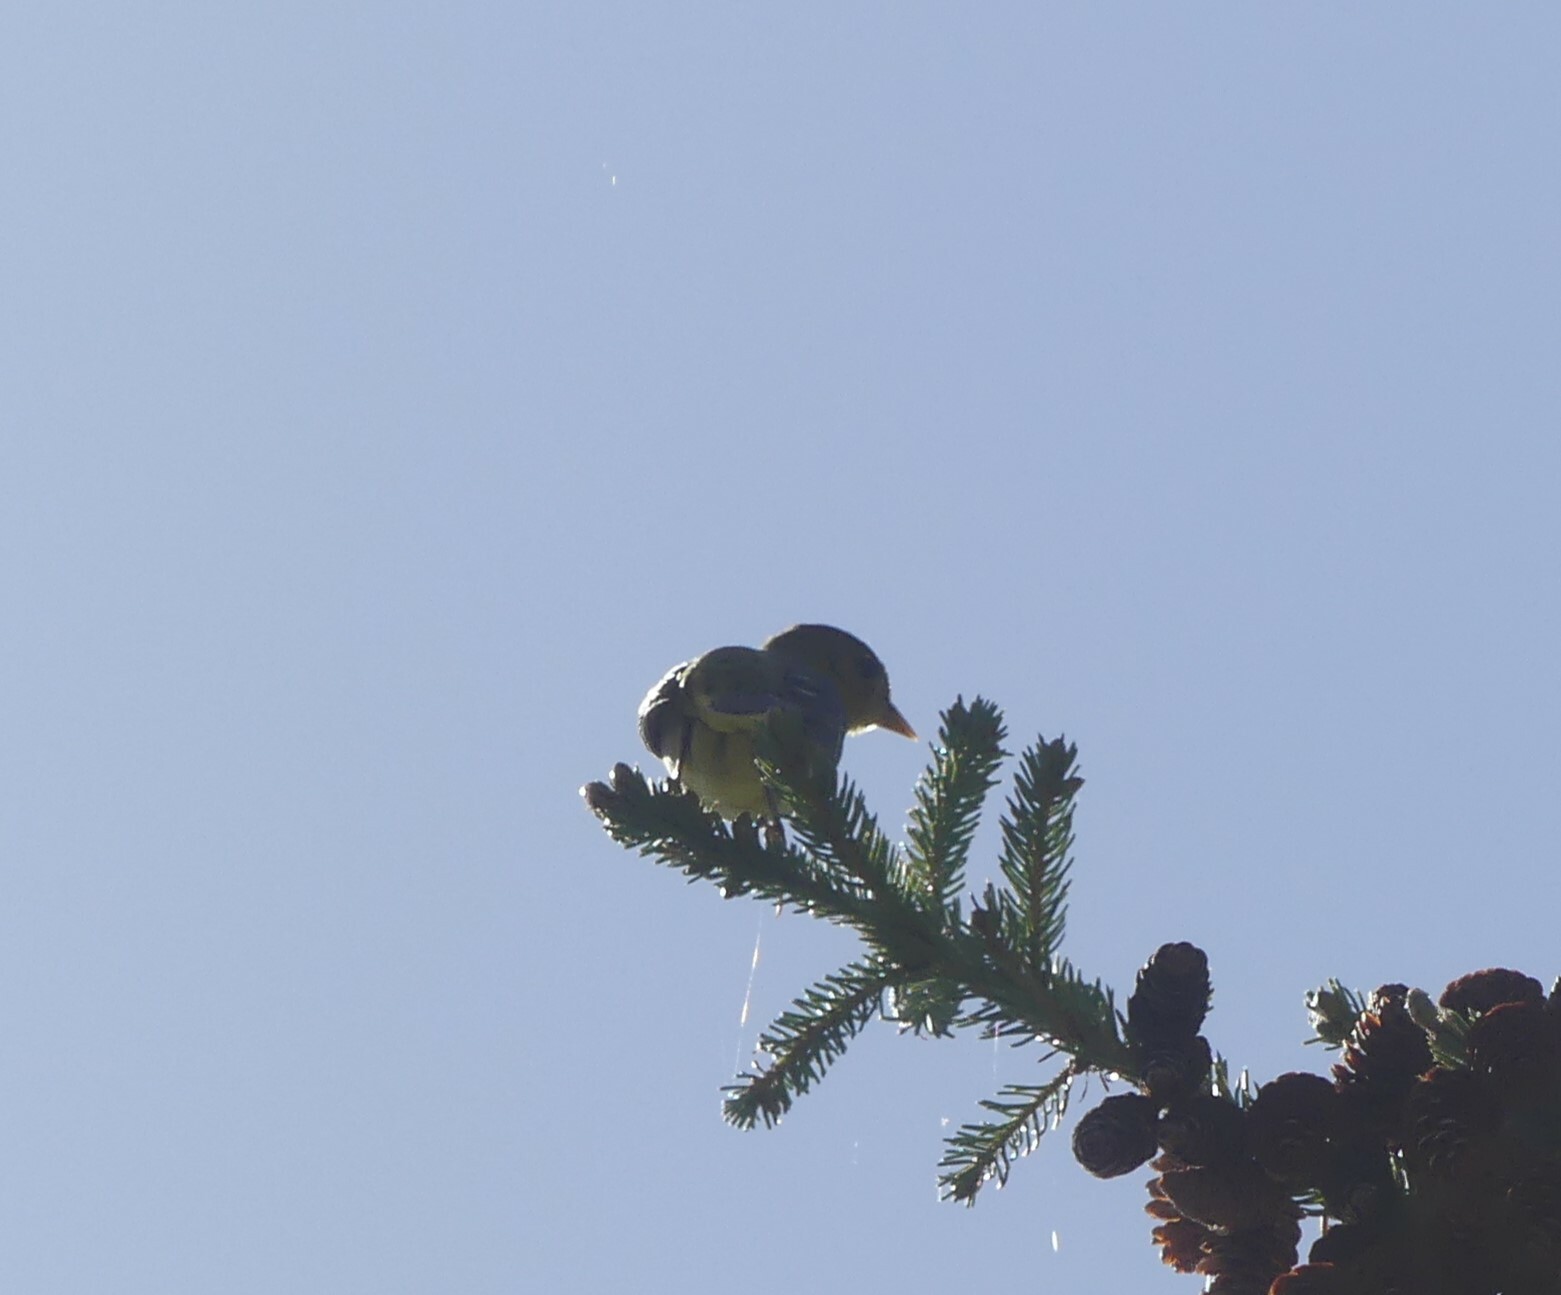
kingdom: Animalia
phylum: Chordata
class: Aves
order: Passeriformes
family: Cardinalidae
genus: Piranga
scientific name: Piranga ludoviciana
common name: Western tanager
